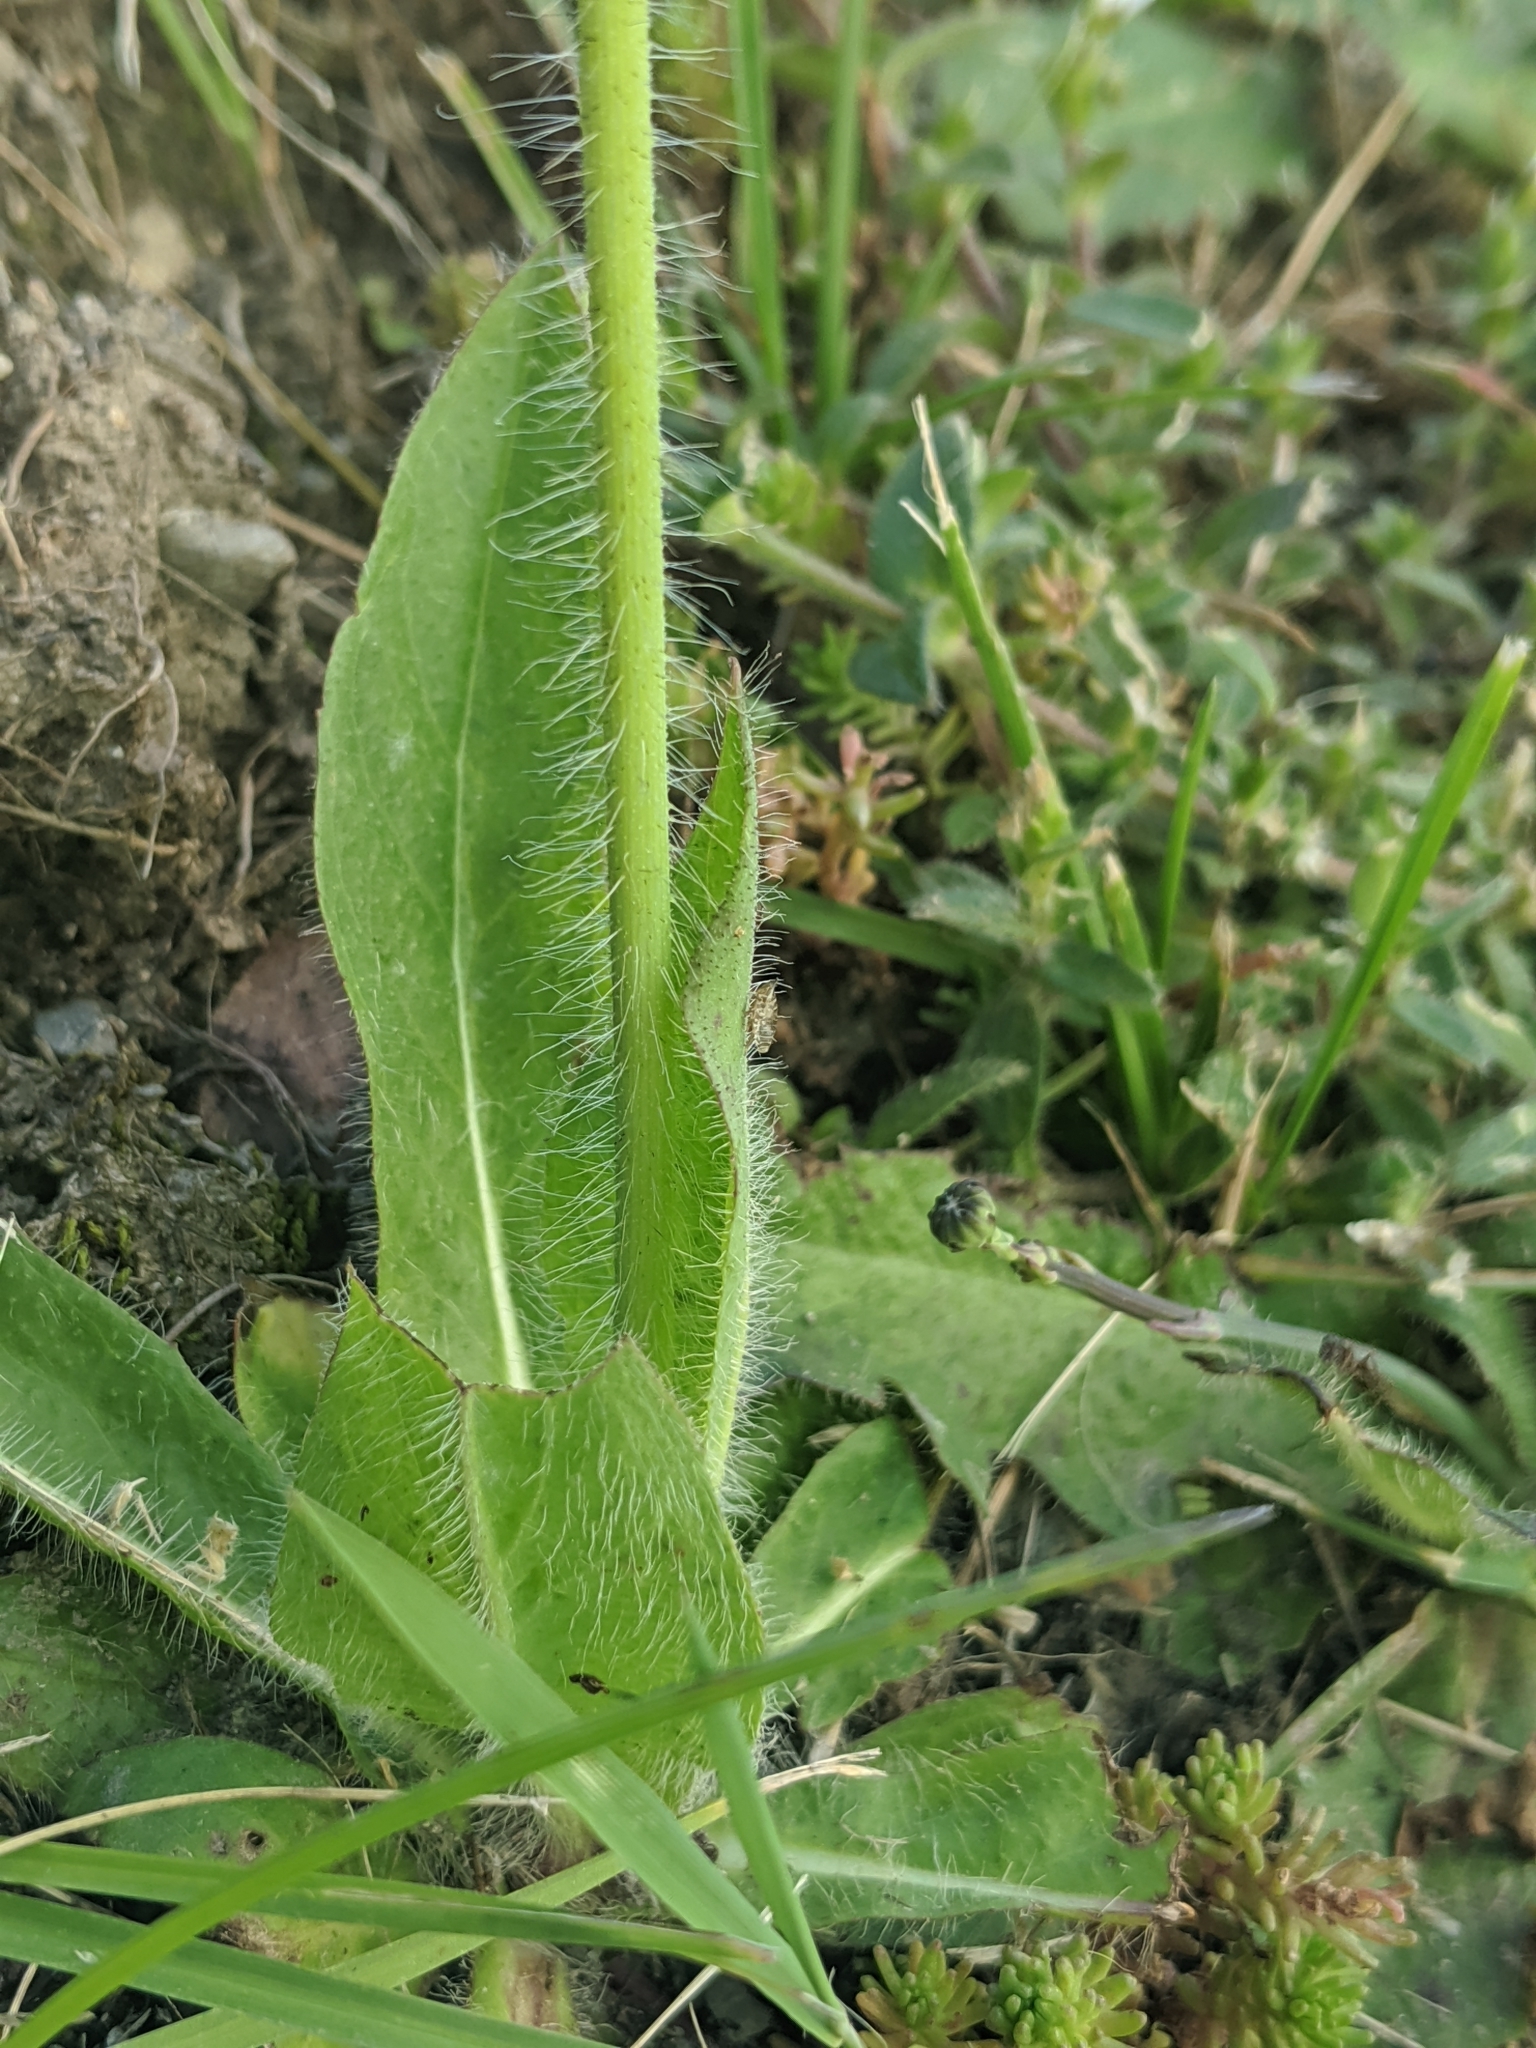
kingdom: Plantae
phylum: Tracheophyta
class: Magnoliopsida
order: Asterales
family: Asteraceae
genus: Pilosella
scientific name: Pilosella aurantiaca
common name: Fox-and-cubs
